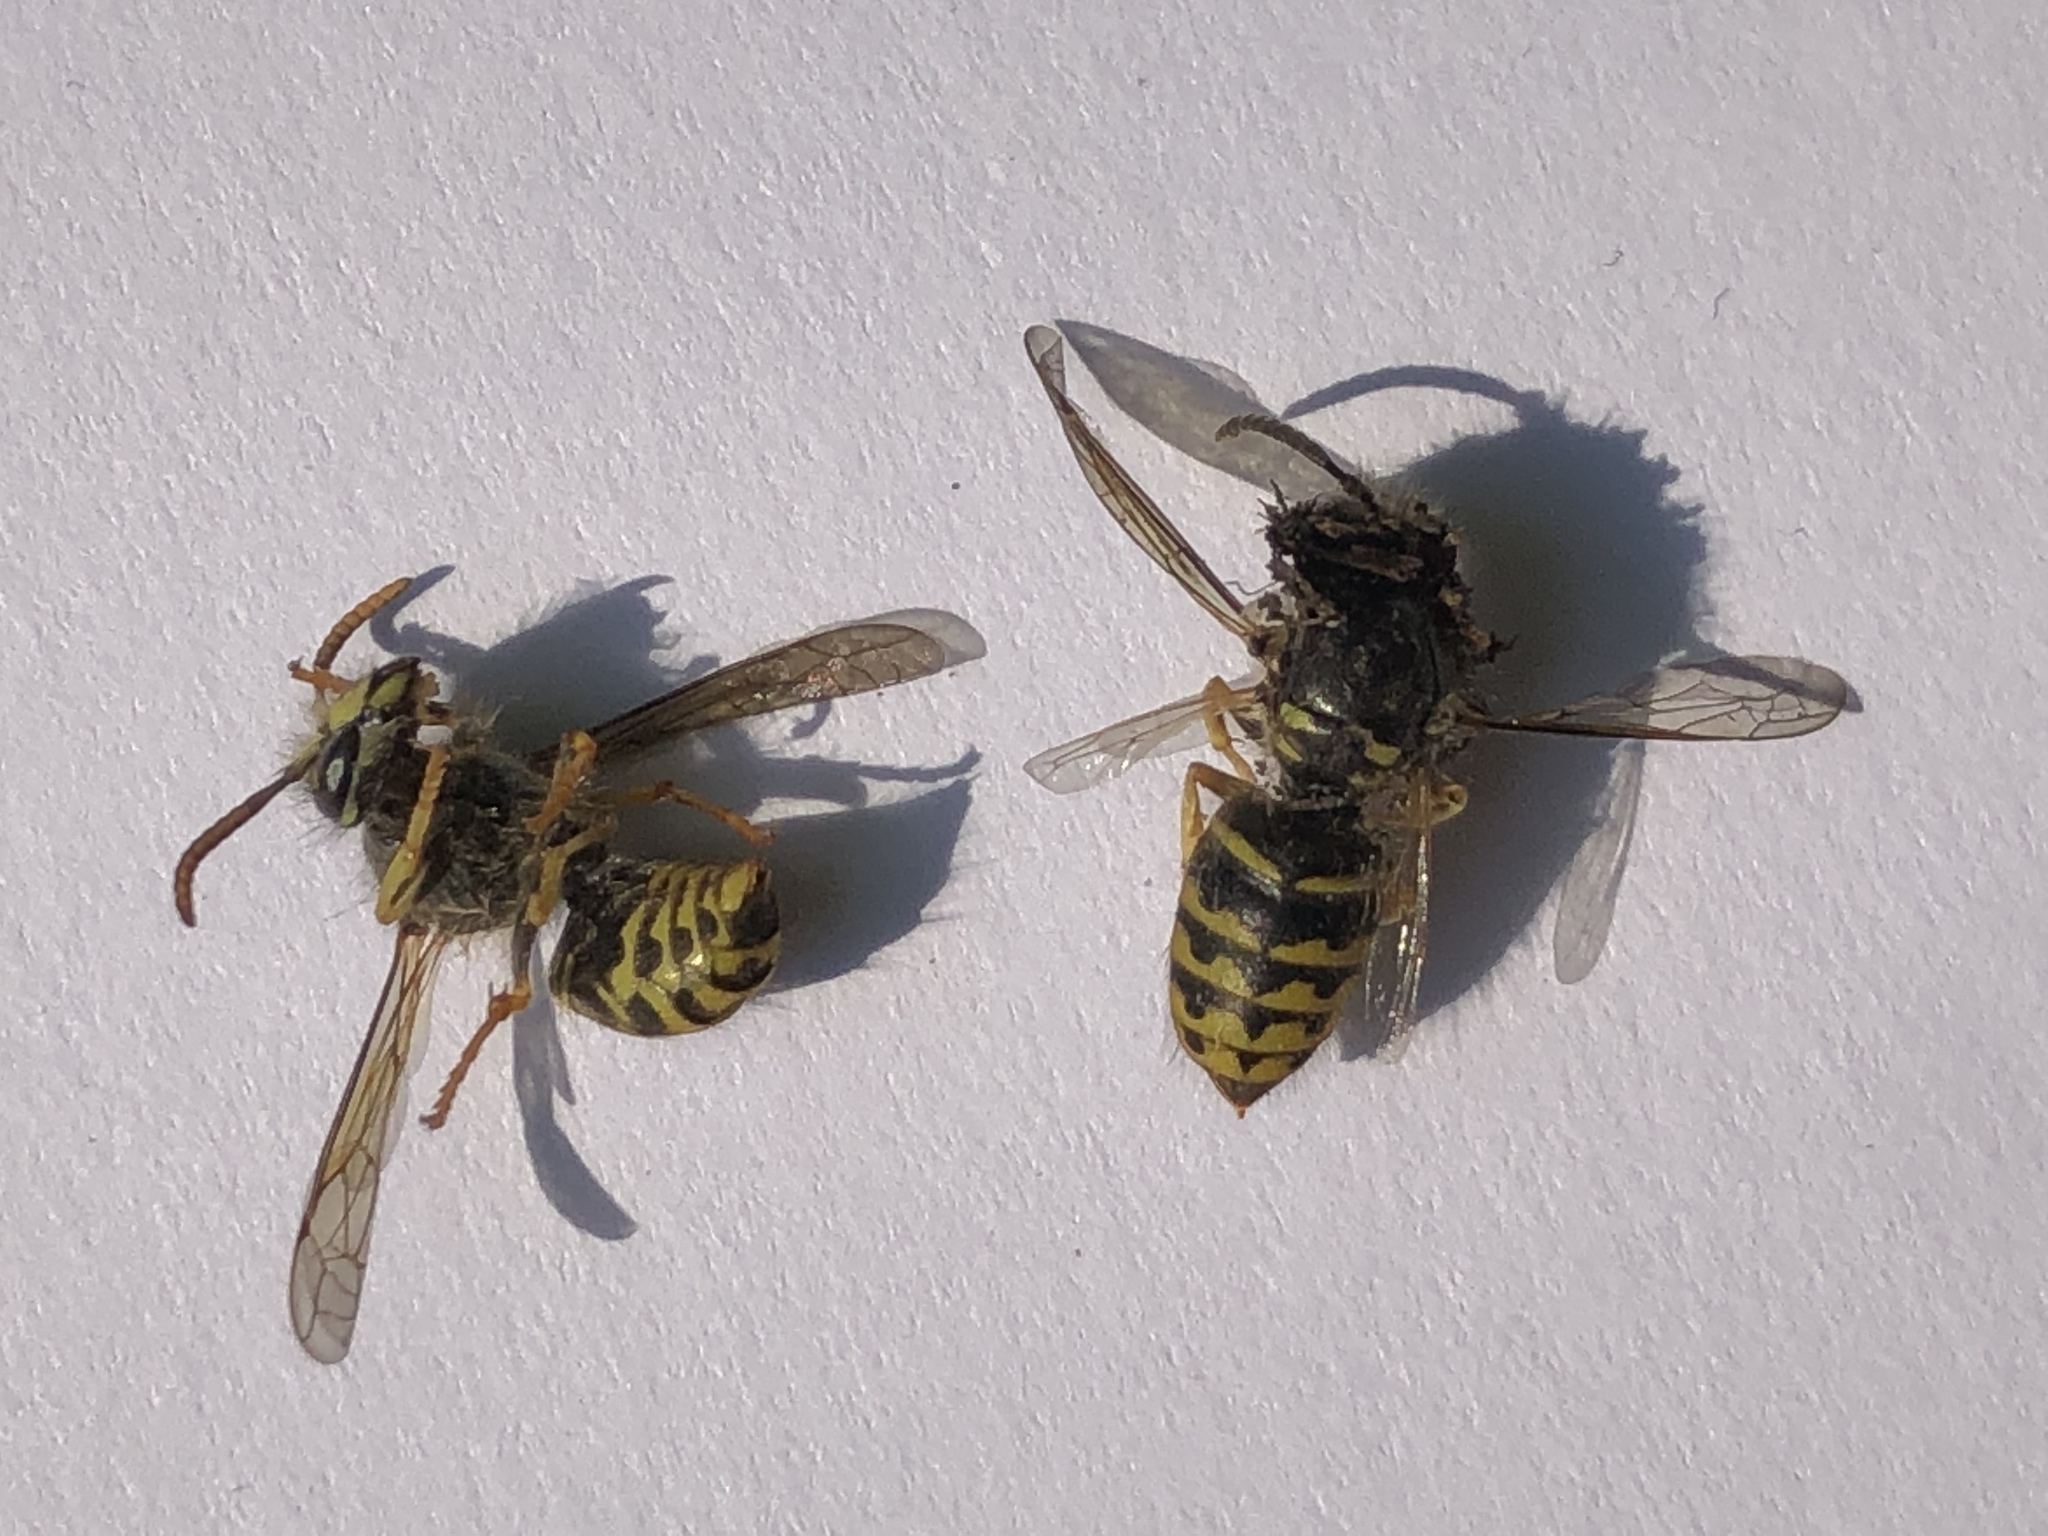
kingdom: Animalia
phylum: Arthropoda
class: Insecta
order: Hymenoptera
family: Vespidae
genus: Dolichovespula
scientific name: Dolichovespula arenaria
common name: Aerial yellowjacket
